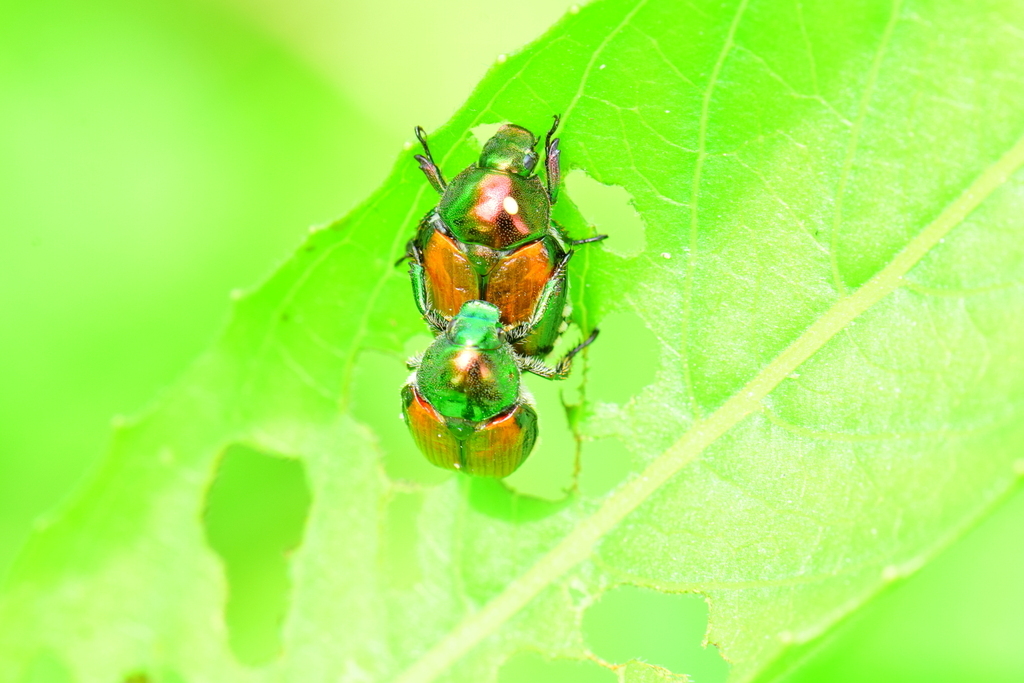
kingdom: Animalia
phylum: Arthropoda
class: Insecta
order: Diptera
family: Tachinidae
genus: Istocheta
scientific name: Istocheta aldrichi
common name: Parasitic wasp
